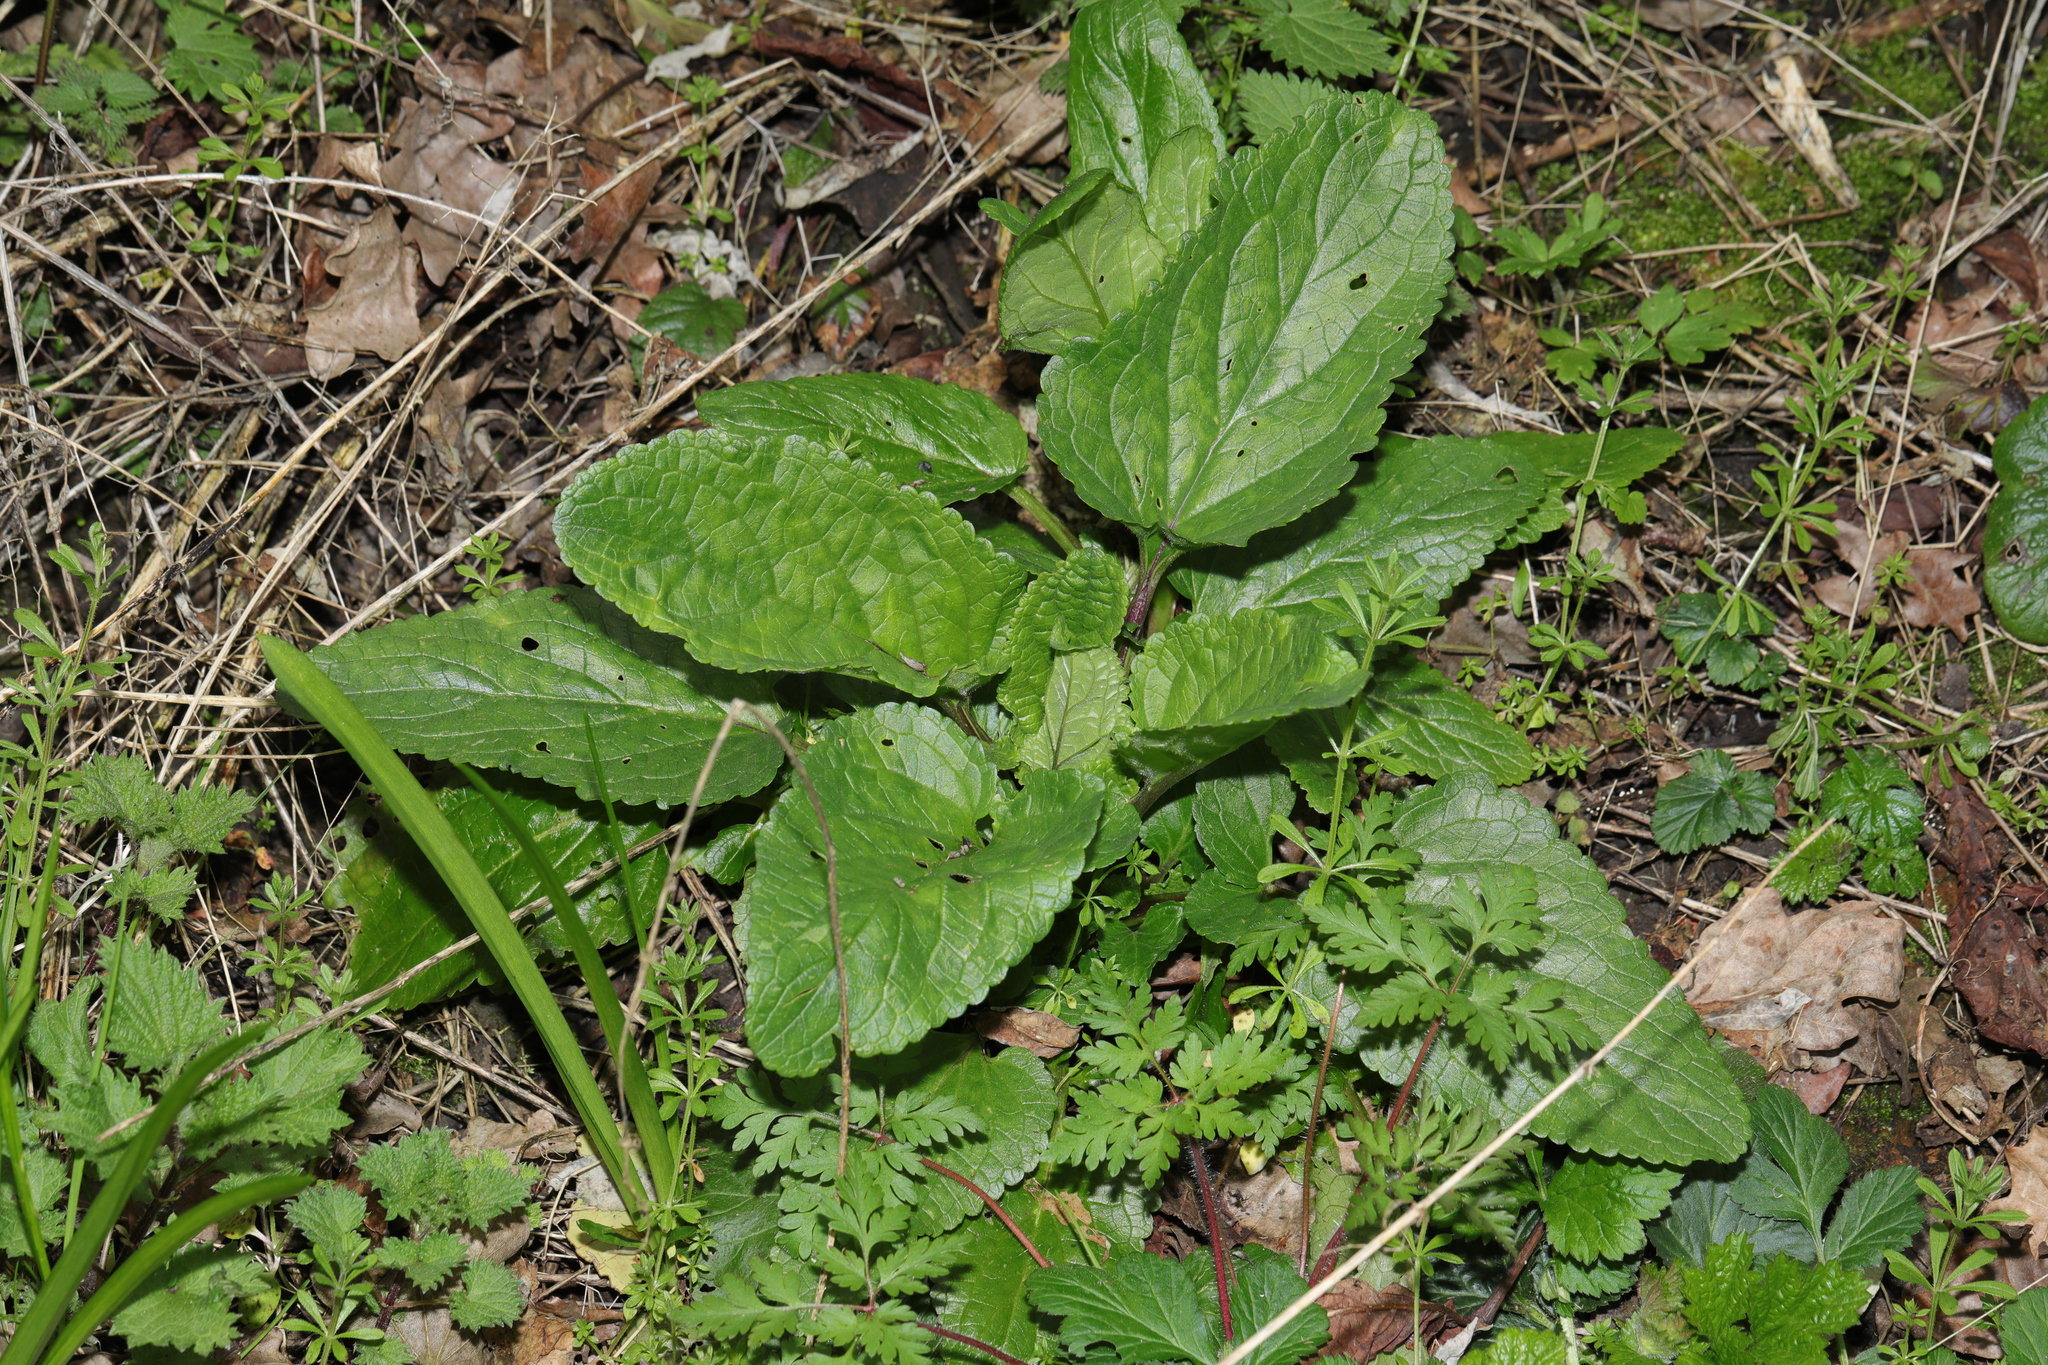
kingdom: Plantae
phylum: Tracheophyta
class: Magnoliopsida
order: Lamiales
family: Scrophulariaceae
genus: Scrophularia
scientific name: Scrophularia auriculata
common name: Water betony
